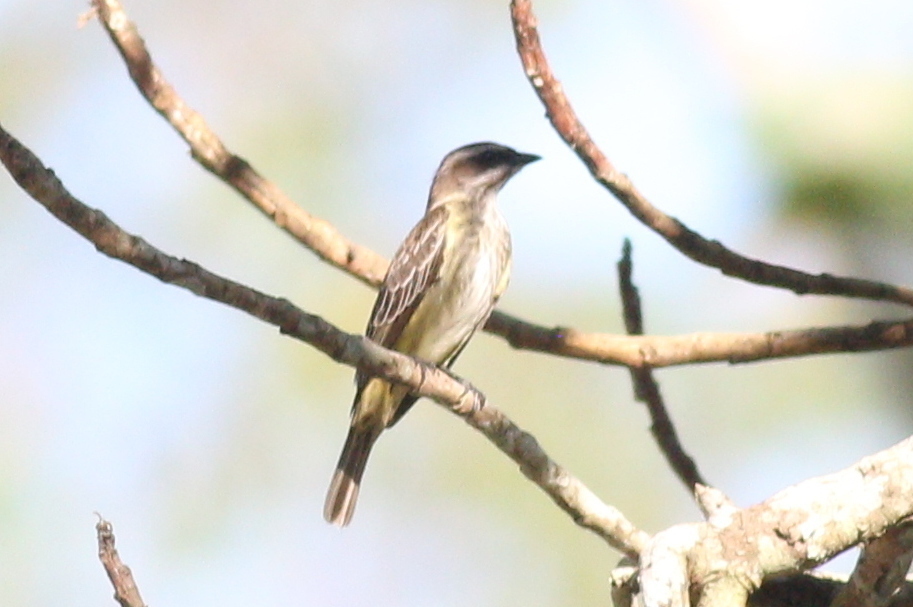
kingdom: Animalia
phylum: Chordata
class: Aves
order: Passeriformes
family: Tyrannidae
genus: Legatus
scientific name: Legatus leucophaius
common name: Piratic flycatcher
